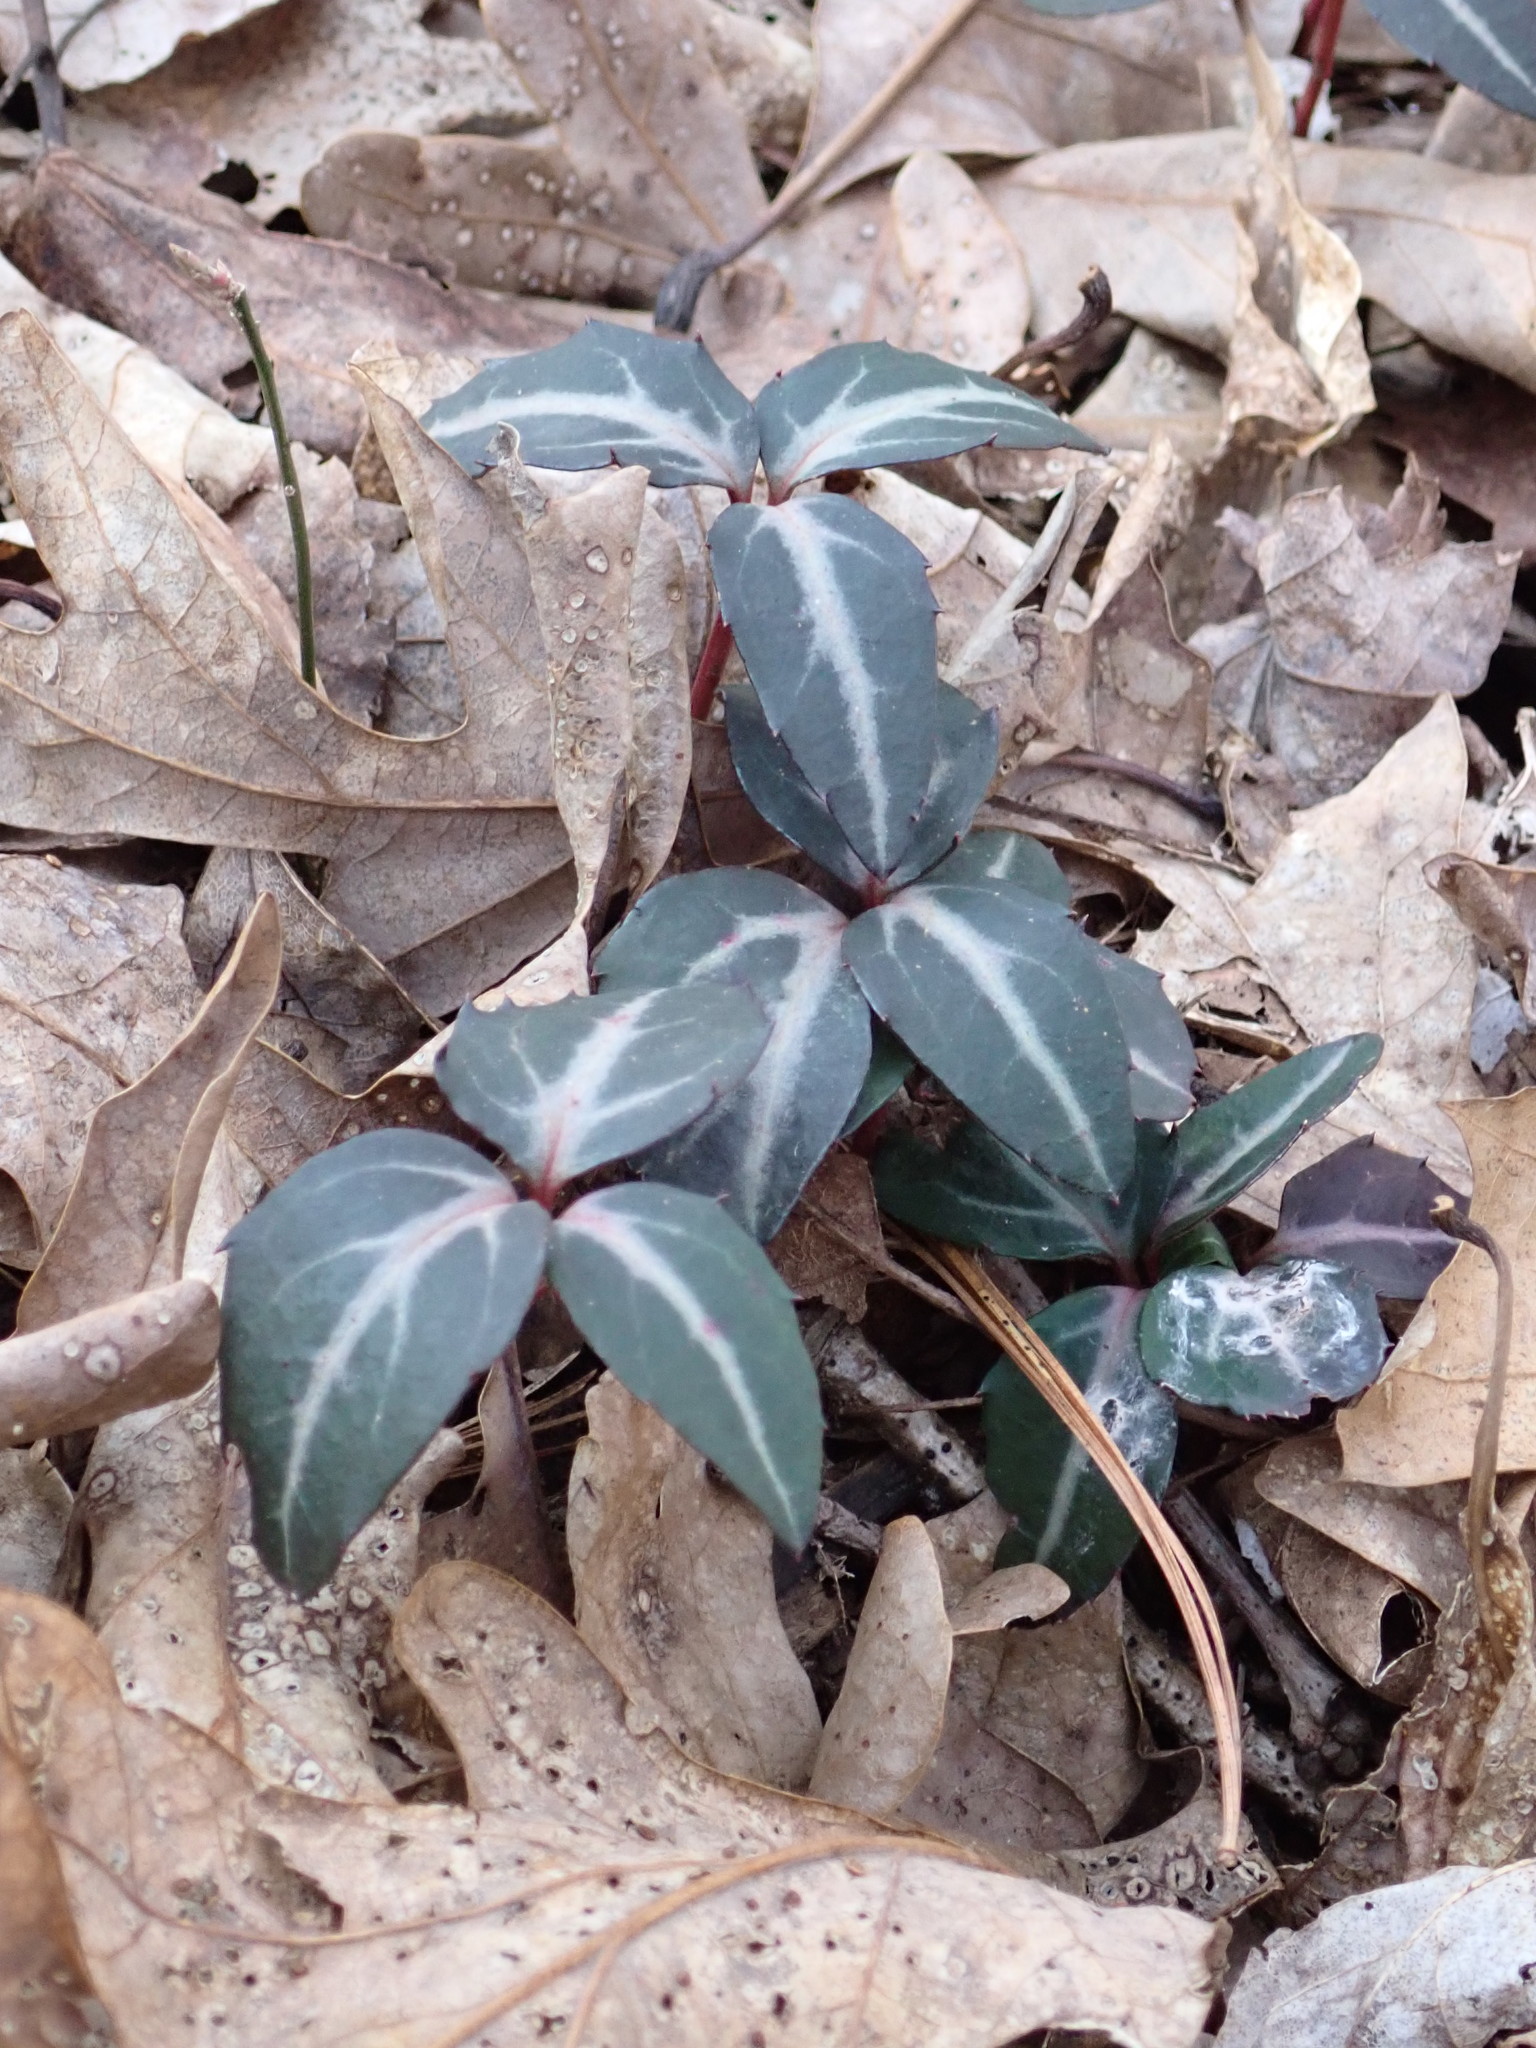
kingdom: Plantae
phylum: Tracheophyta
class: Magnoliopsida
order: Ericales
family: Ericaceae
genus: Chimaphila
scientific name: Chimaphila maculata
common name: Spotted pipsissewa
